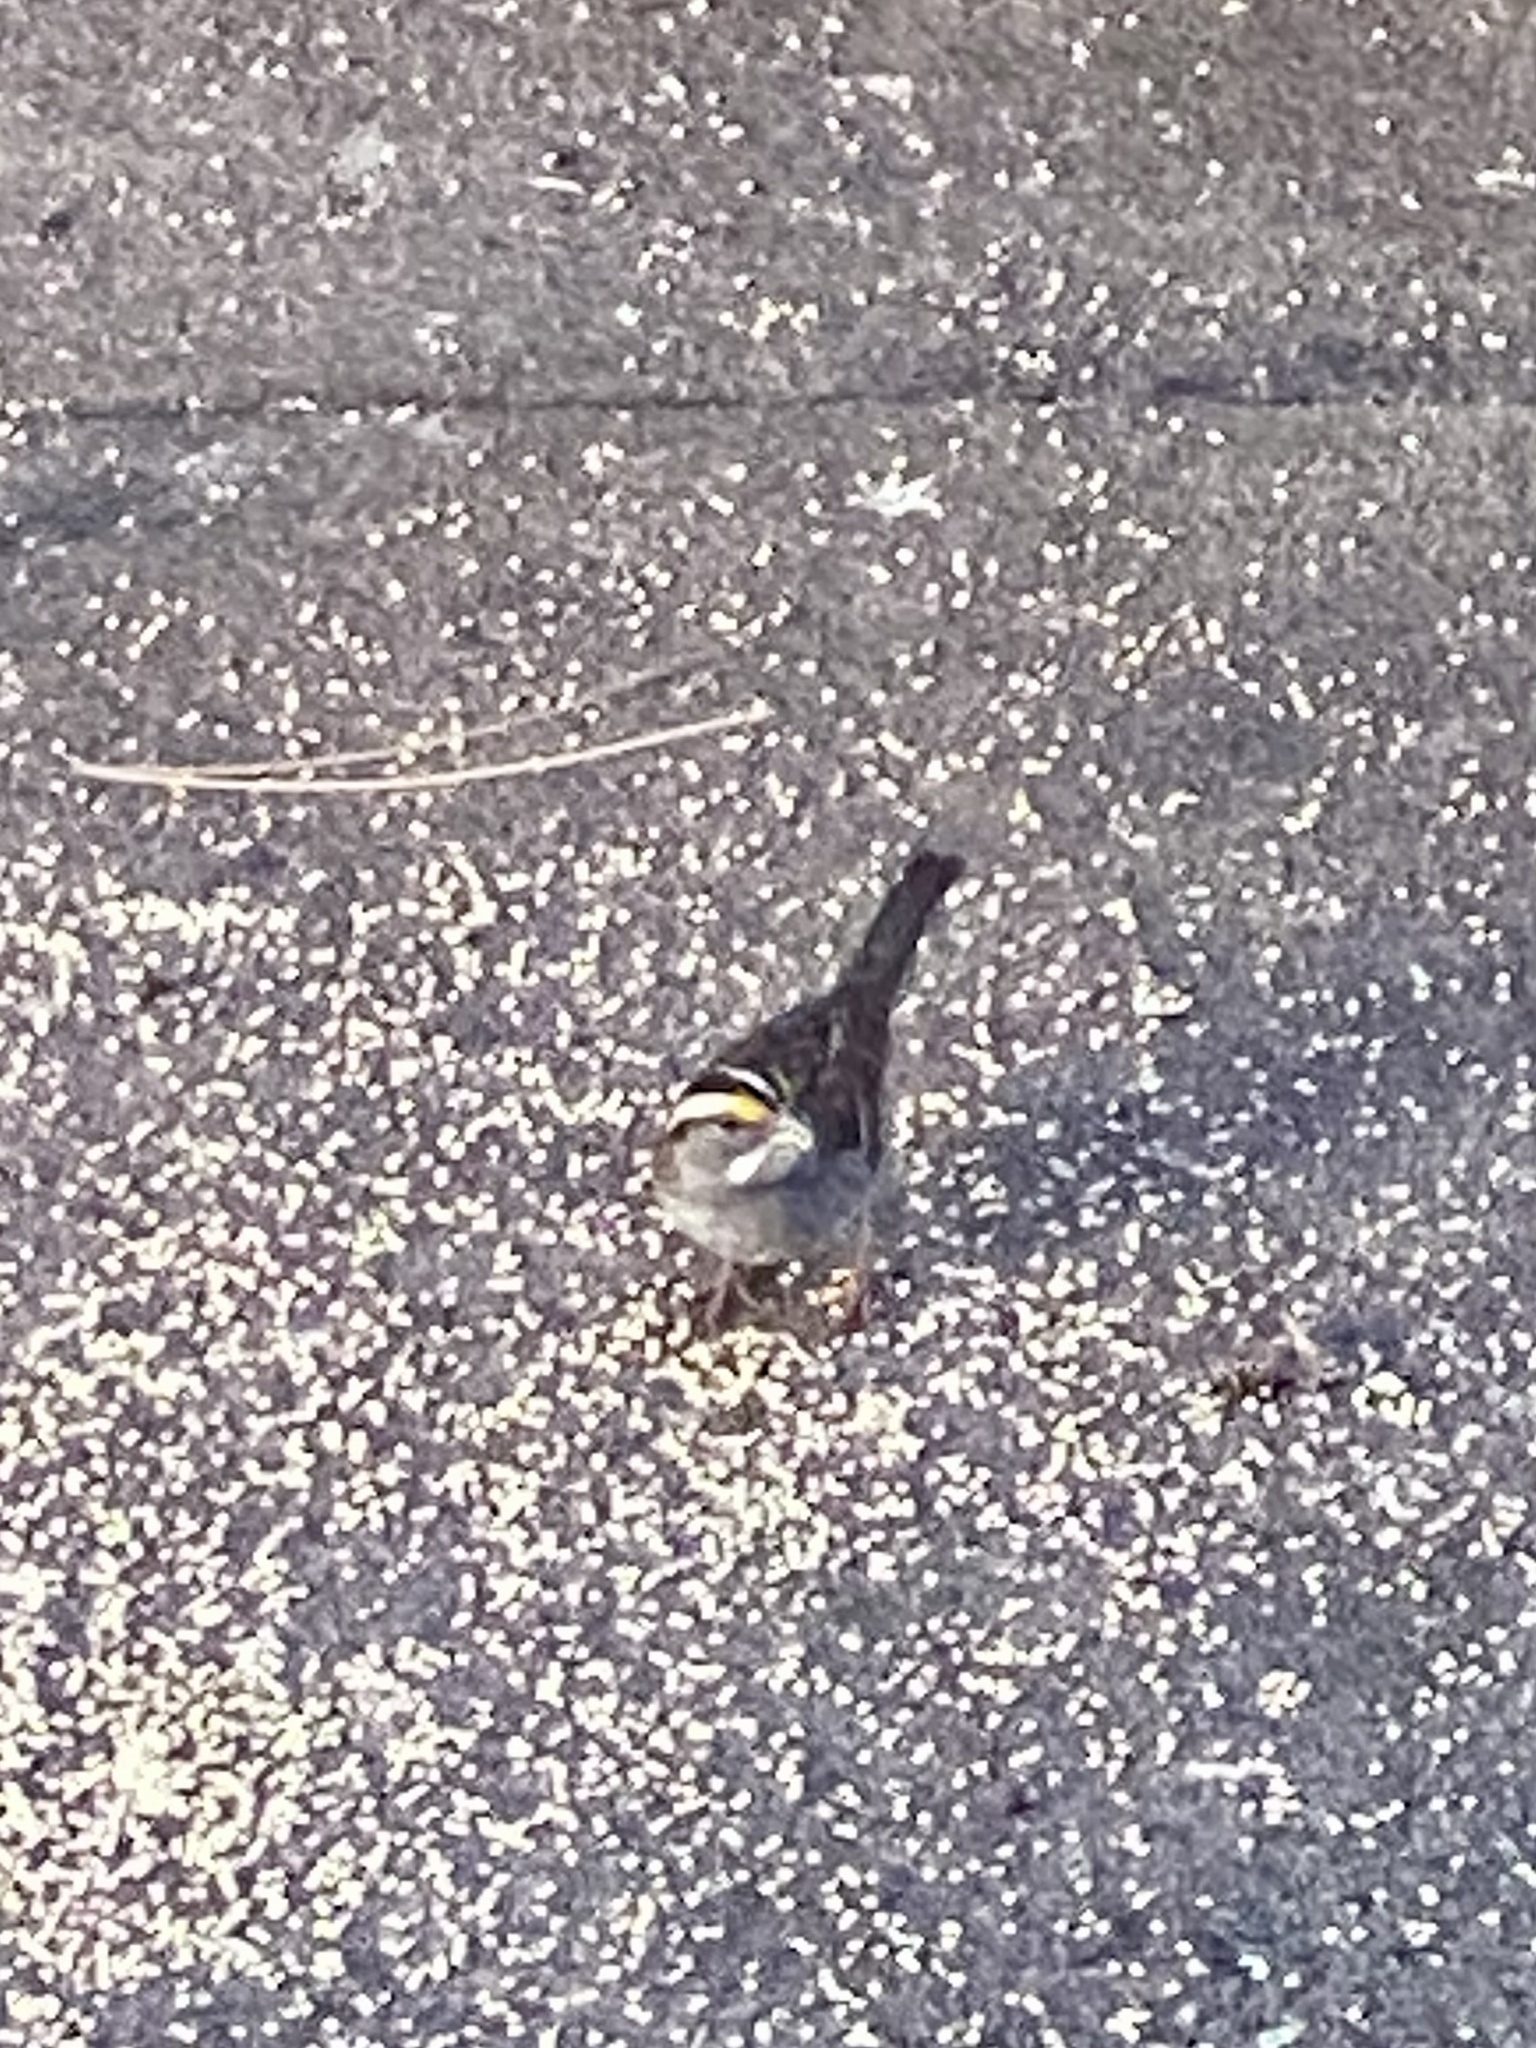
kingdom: Animalia
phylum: Chordata
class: Aves
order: Passeriformes
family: Passerellidae
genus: Zonotrichia
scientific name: Zonotrichia albicollis
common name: White-throated sparrow
